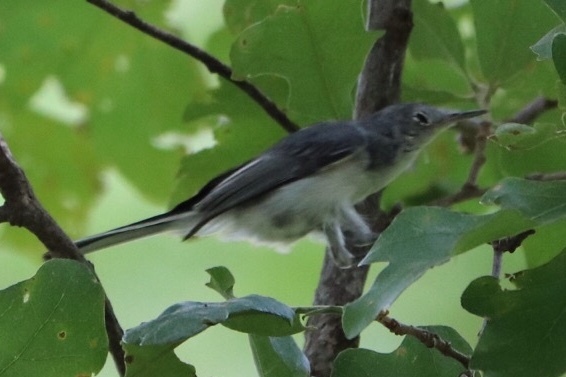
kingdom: Animalia
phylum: Chordata
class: Aves
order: Passeriformes
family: Polioptilidae
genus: Polioptila
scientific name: Polioptila caerulea
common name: Blue-gray gnatcatcher
